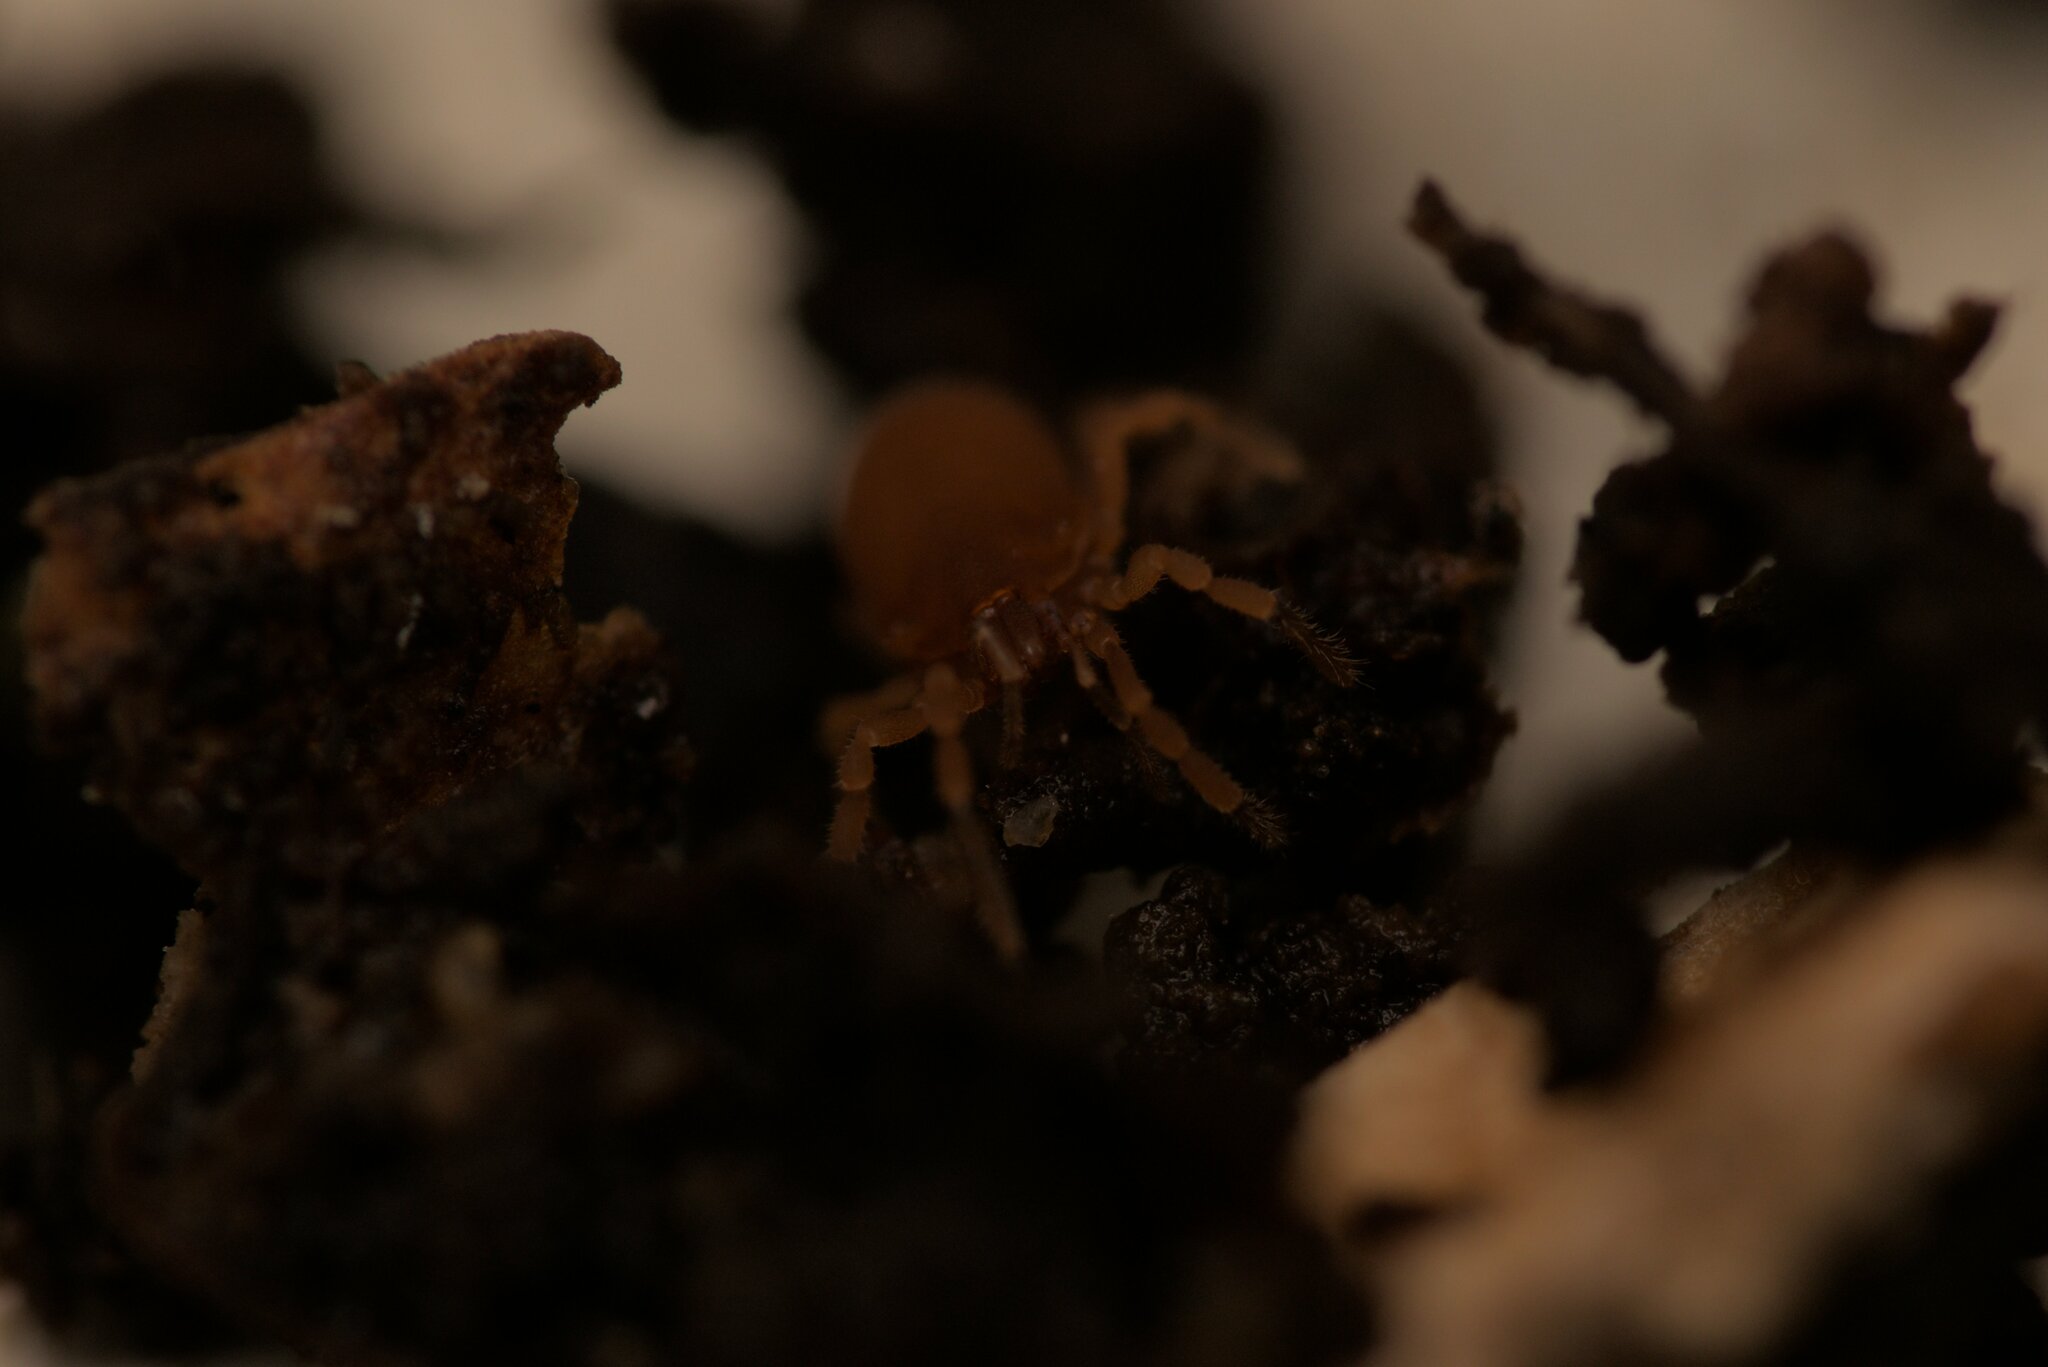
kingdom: Animalia
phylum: Arthropoda
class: Arachnida
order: Opiliones
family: Sironidae
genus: Siro
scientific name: Siro rubens
